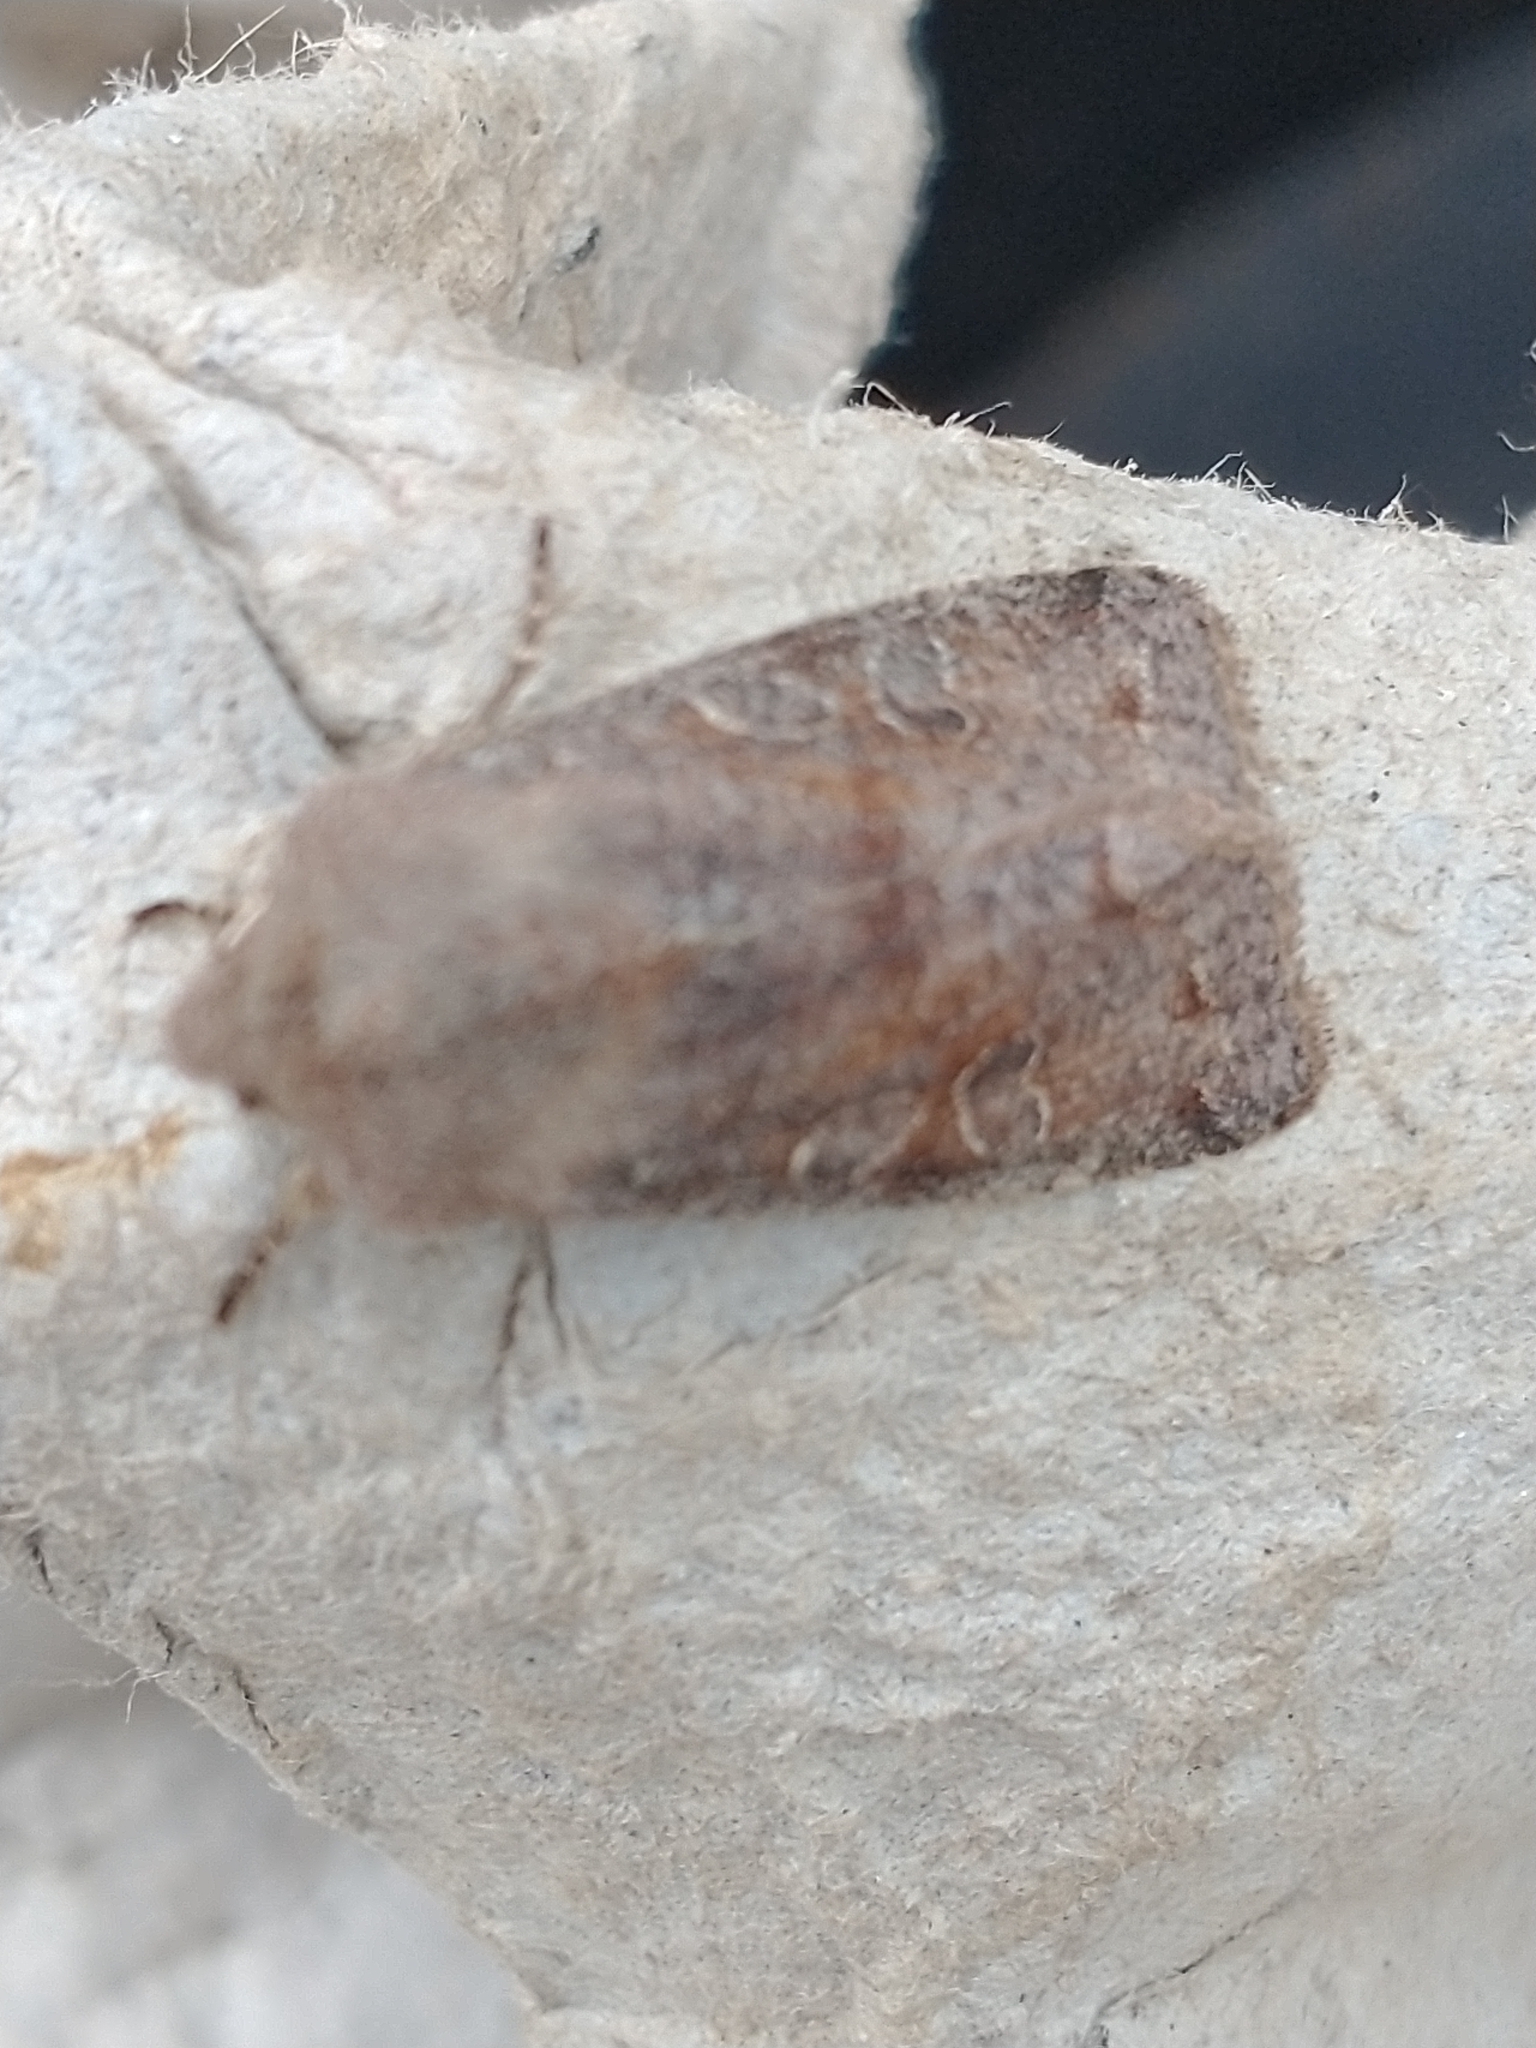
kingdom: Animalia
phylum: Arthropoda
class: Insecta
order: Lepidoptera
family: Noctuidae
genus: Orthosia
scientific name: Orthosia incerta
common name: Clouded drab
